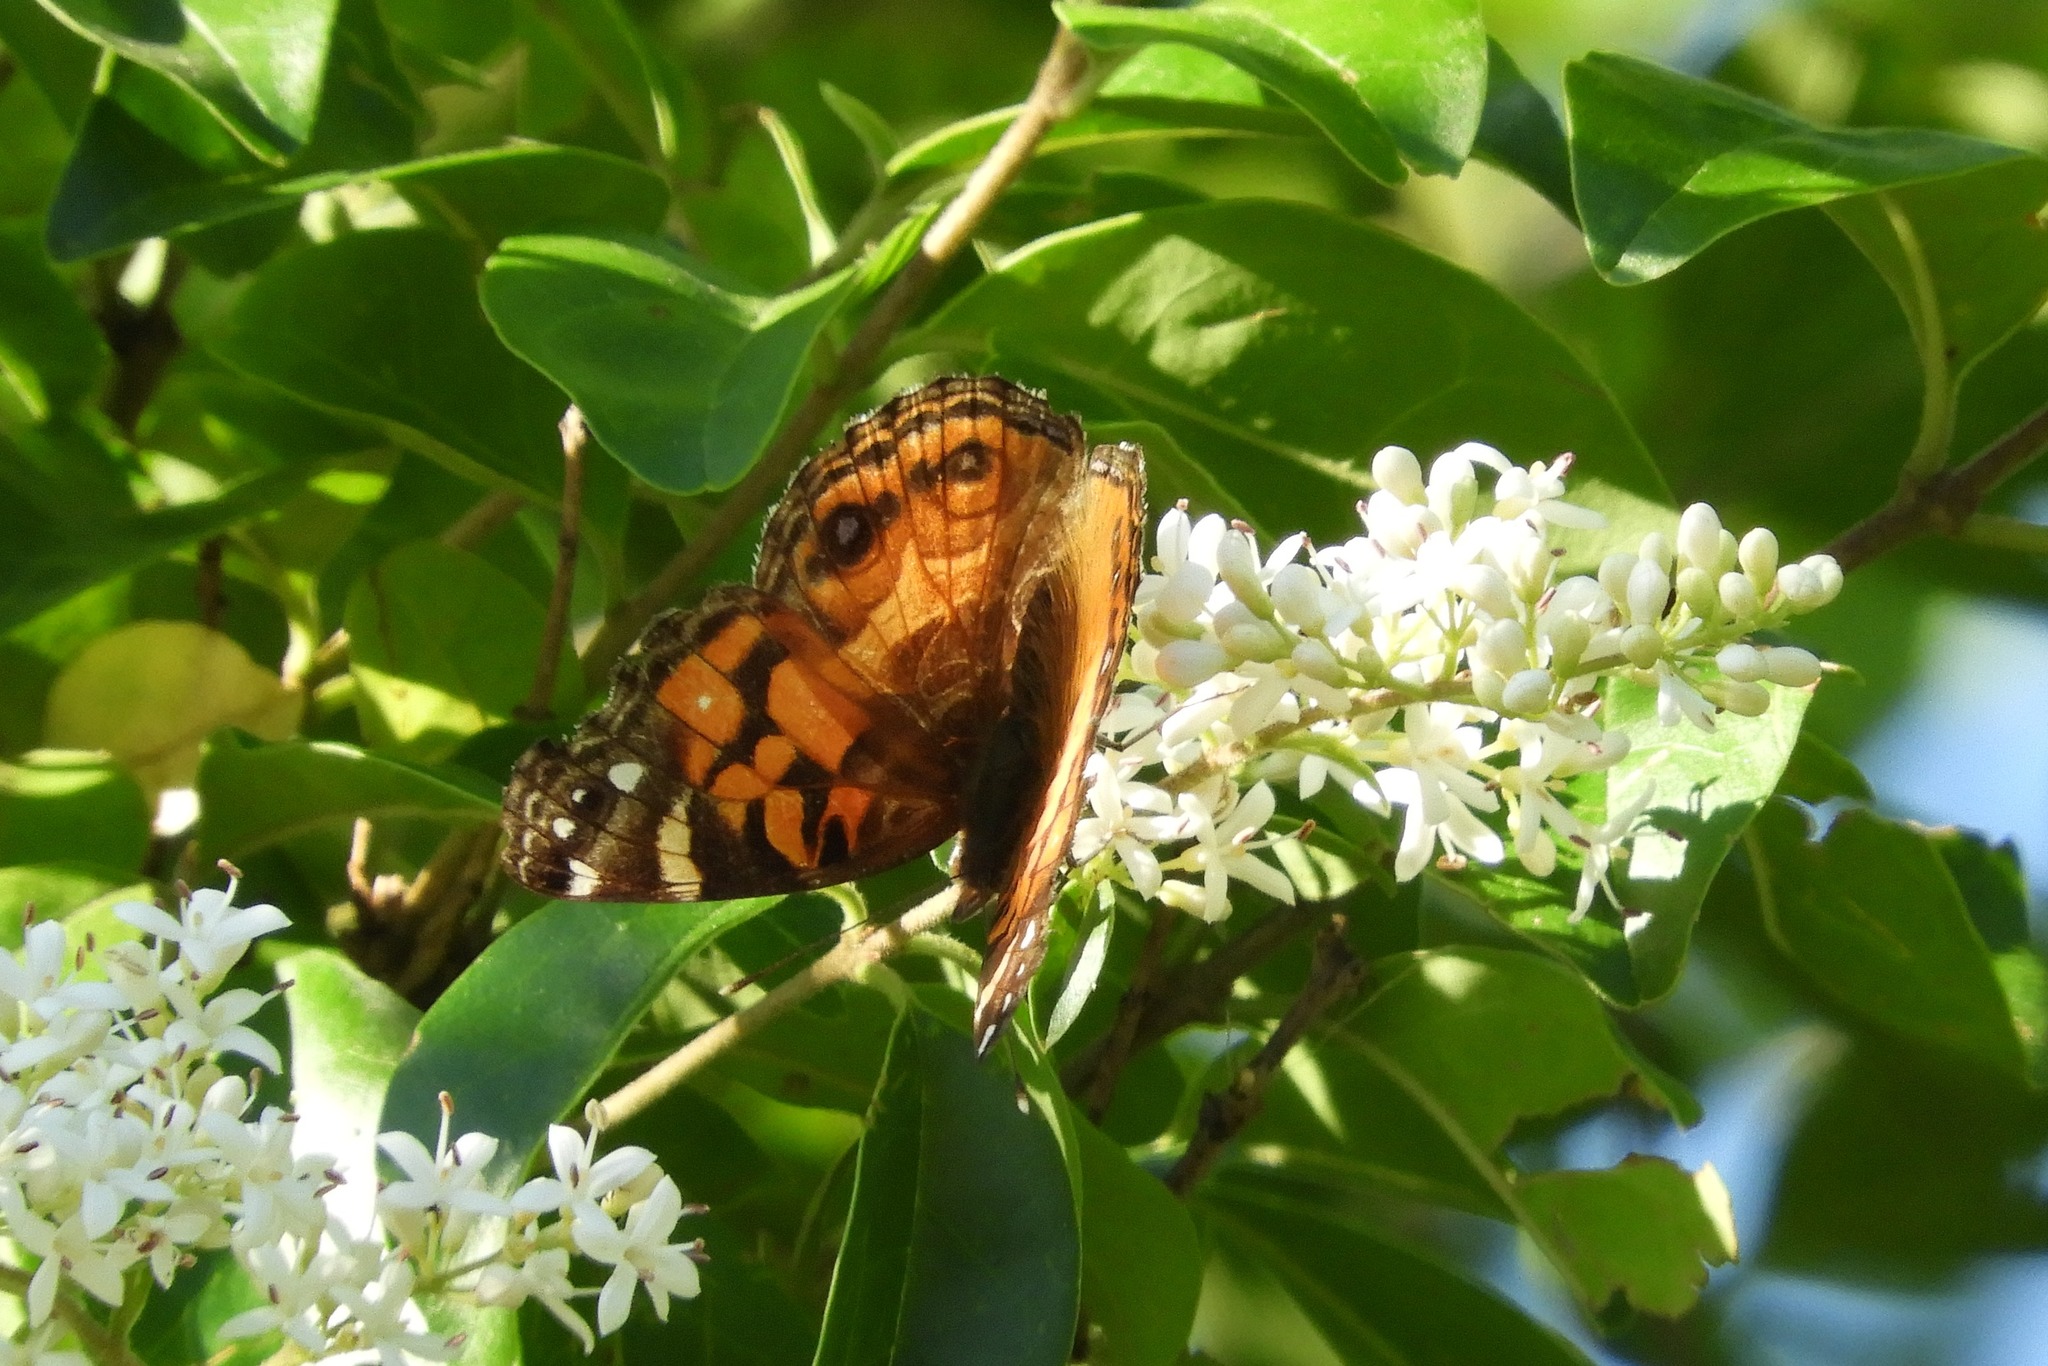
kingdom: Animalia
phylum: Arthropoda
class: Insecta
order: Lepidoptera
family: Nymphalidae
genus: Vanessa
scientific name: Vanessa virginiensis
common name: American lady
